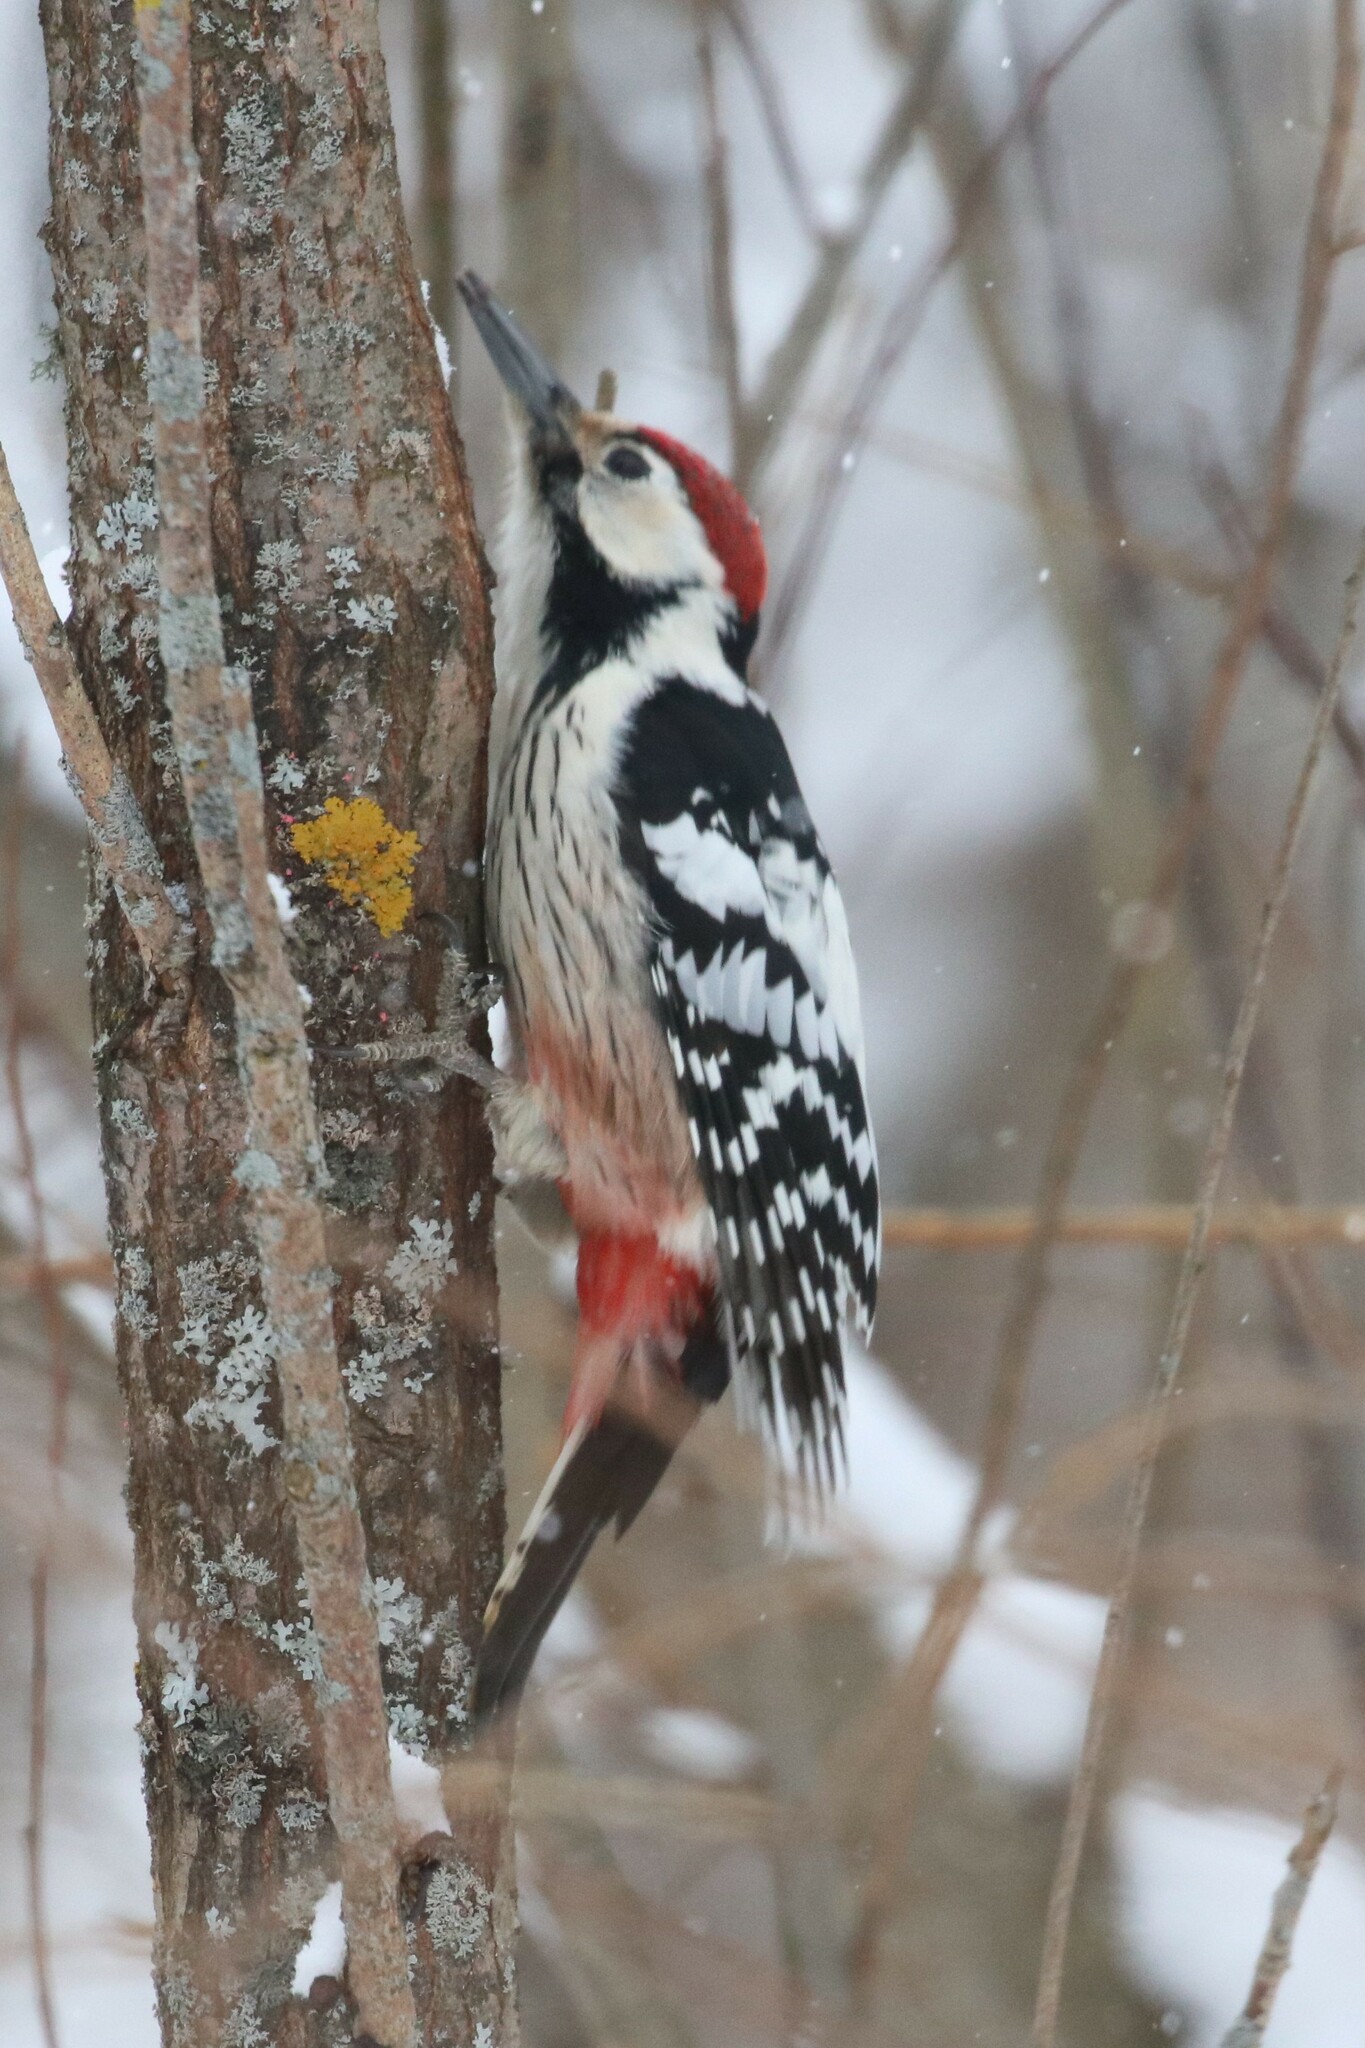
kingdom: Animalia
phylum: Chordata
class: Aves
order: Piciformes
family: Picidae
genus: Dendrocopos
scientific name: Dendrocopos leucotos
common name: White-backed woodpecker
